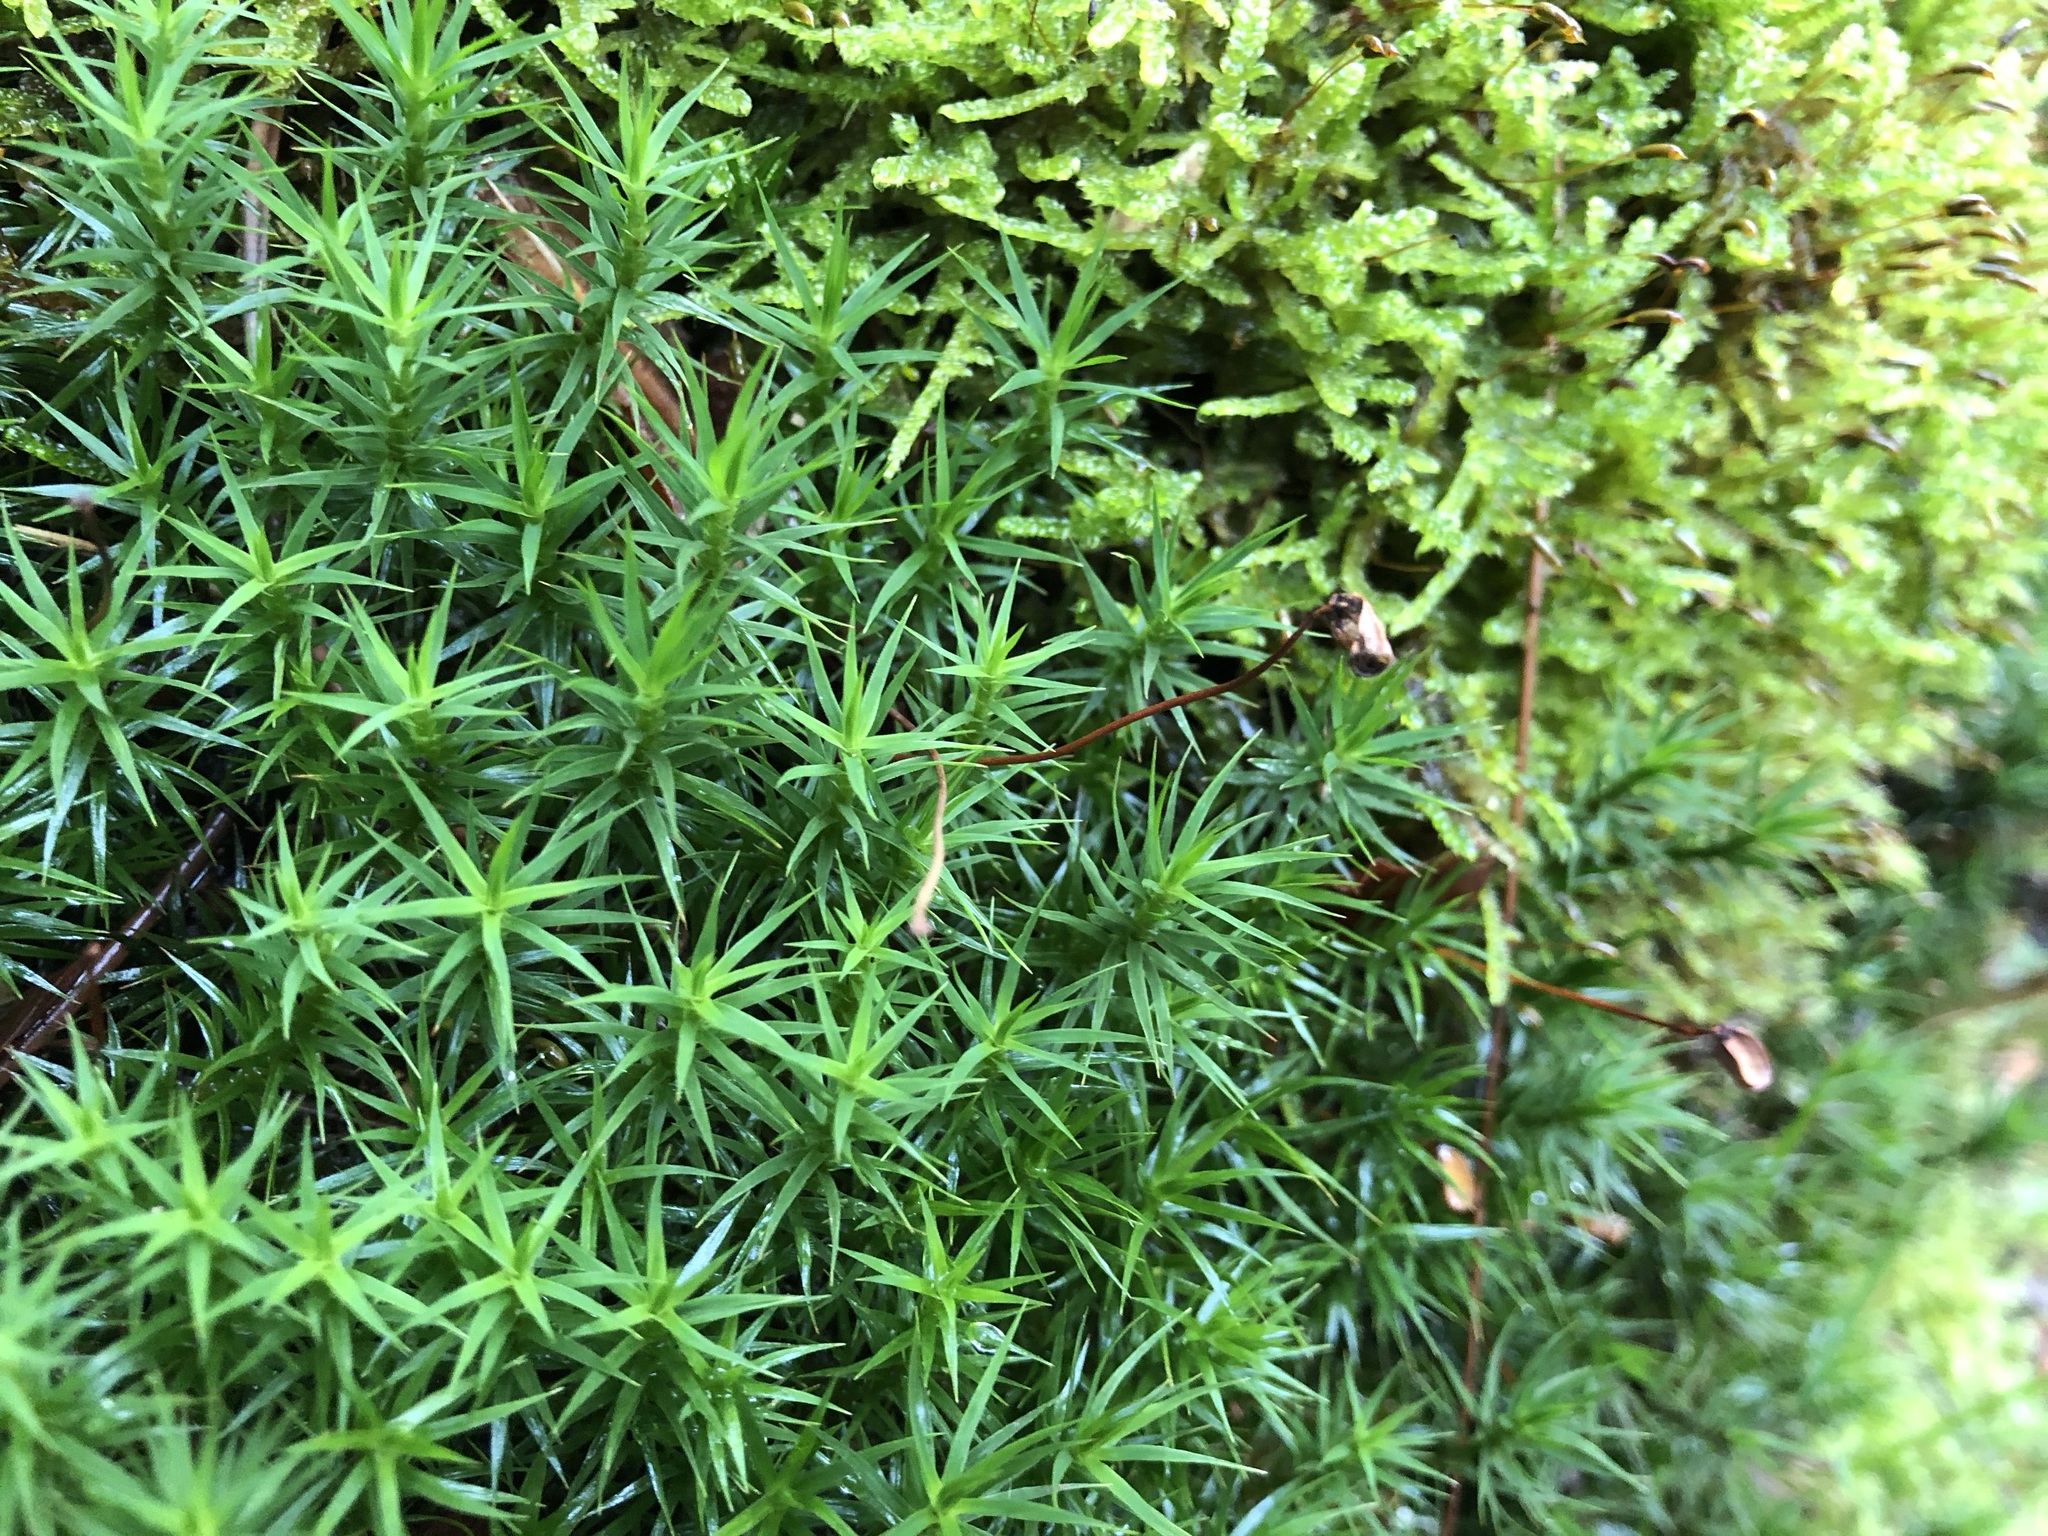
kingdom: Plantae
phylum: Bryophyta
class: Polytrichopsida
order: Polytrichales
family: Polytrichaceae
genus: Polytrichum
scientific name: Polytrichum formosum
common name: Bank haircap moss
